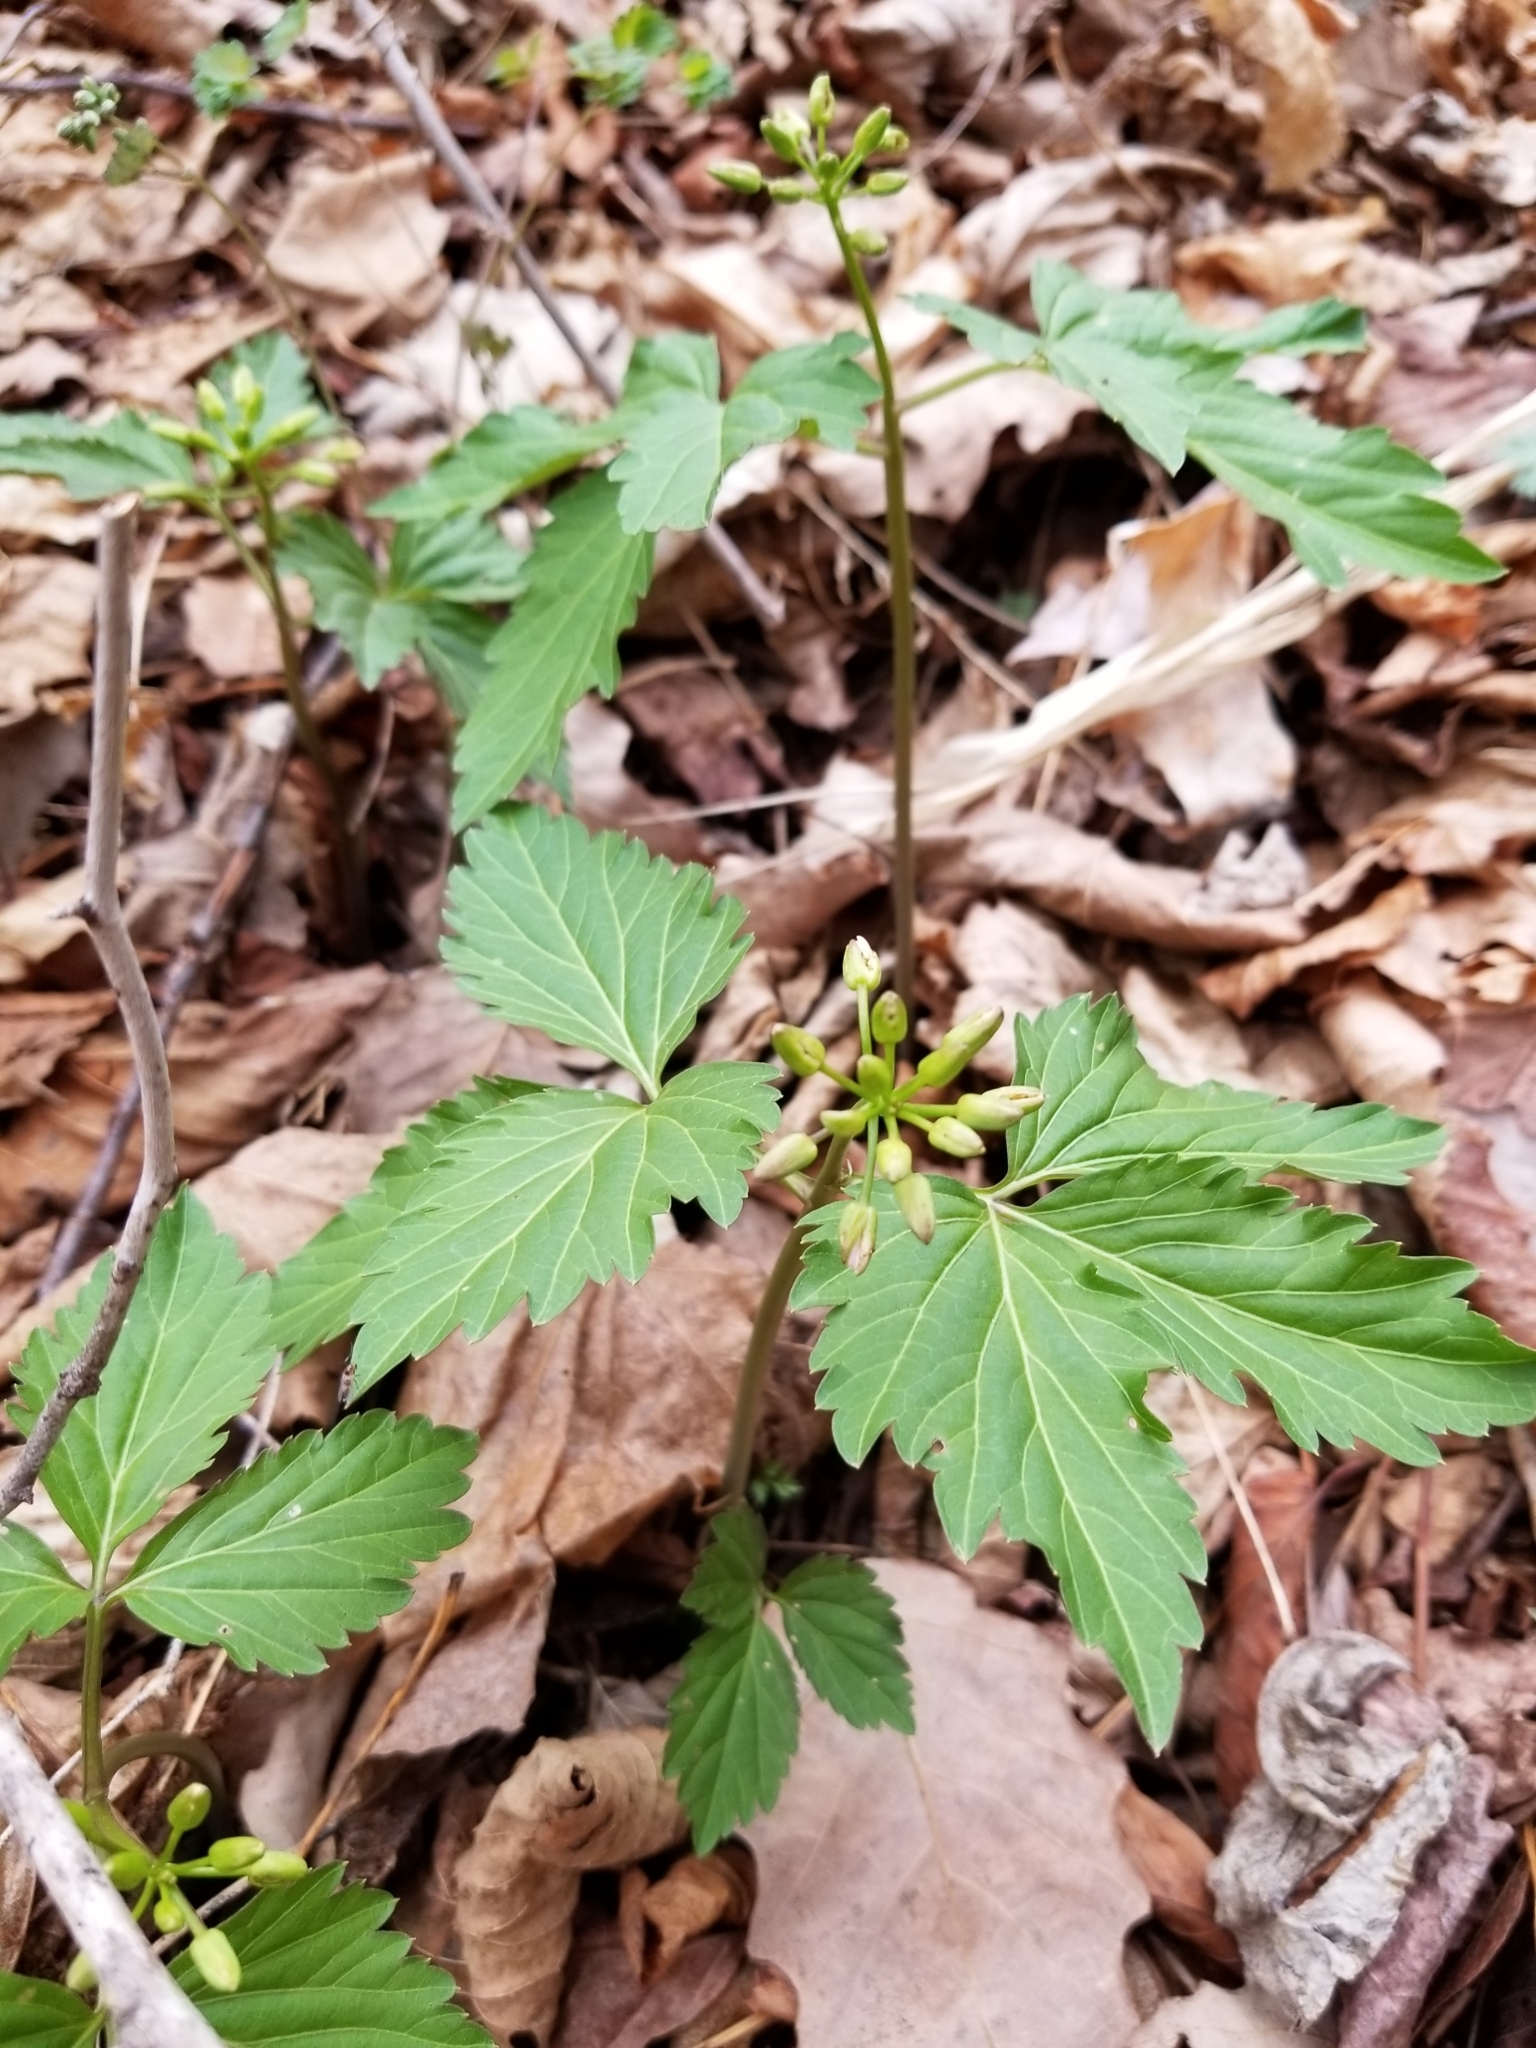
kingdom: Plantae
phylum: Tracheophyta
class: Magnoliopsida
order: Brassicales
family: Brassicaceae
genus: Cardamine
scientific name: Cardamine diphylla
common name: Broad-leaved toothwort
